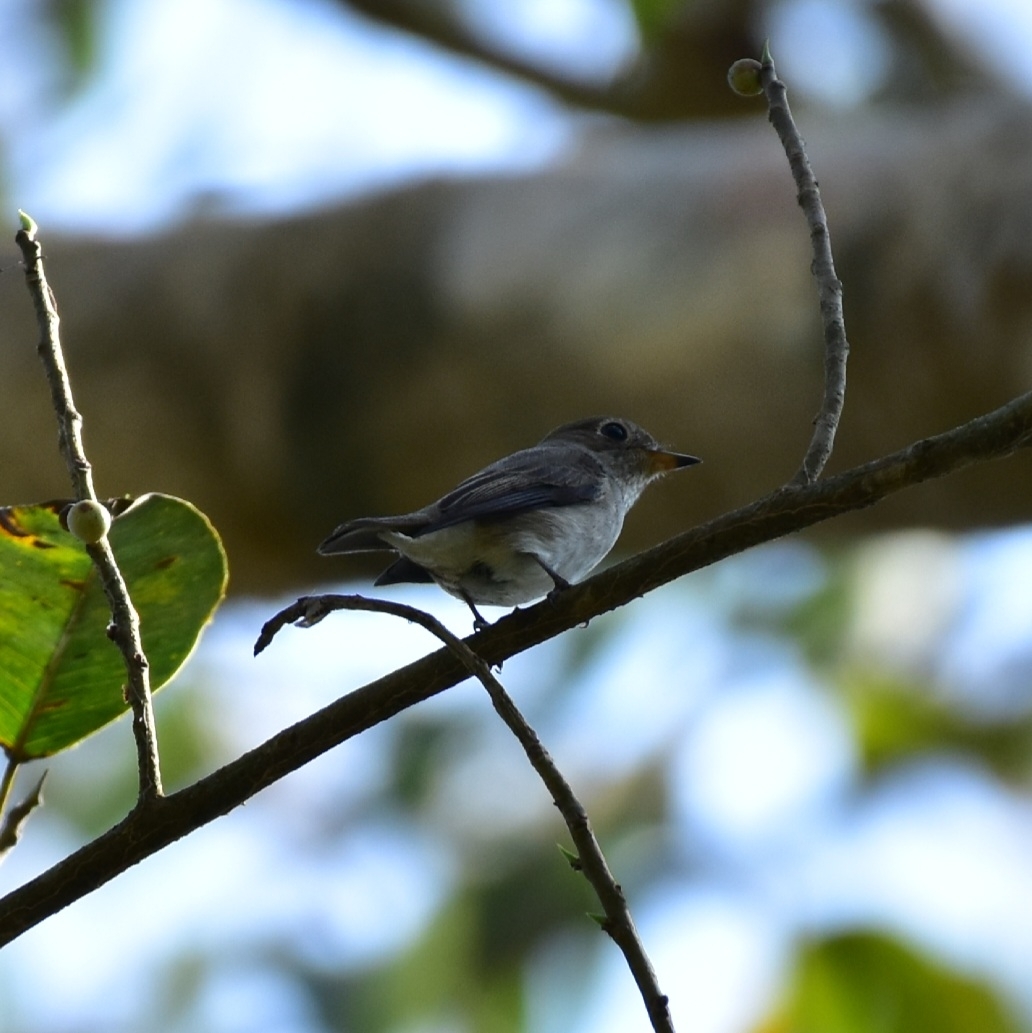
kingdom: Animalia
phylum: Chordata
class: Aves
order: Passeriformes
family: Muscicapidae
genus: Muscicapa
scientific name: Muscicapa latirostris
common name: Asian brown flycatcher
